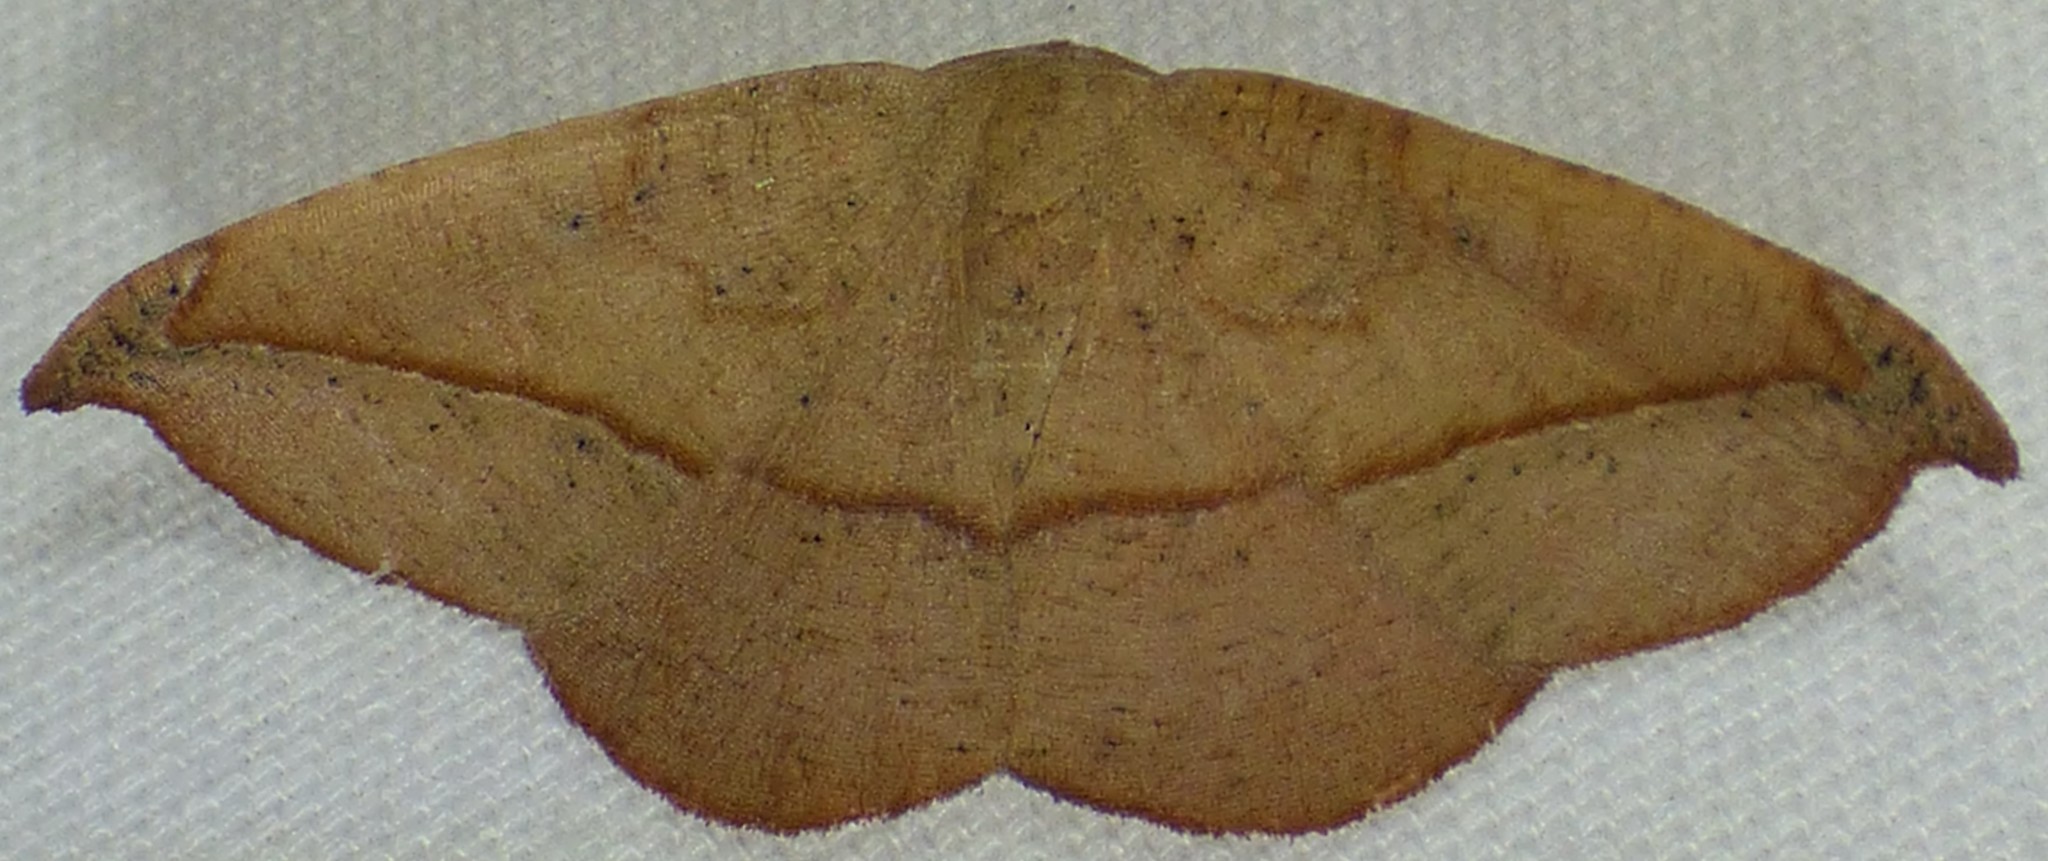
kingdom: Animalia
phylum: Arthropoda
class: Insecta
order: Lepidoptera
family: Geometridae
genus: Patalene
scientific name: Patalene olyzonaria
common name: Juniper geometer moth
